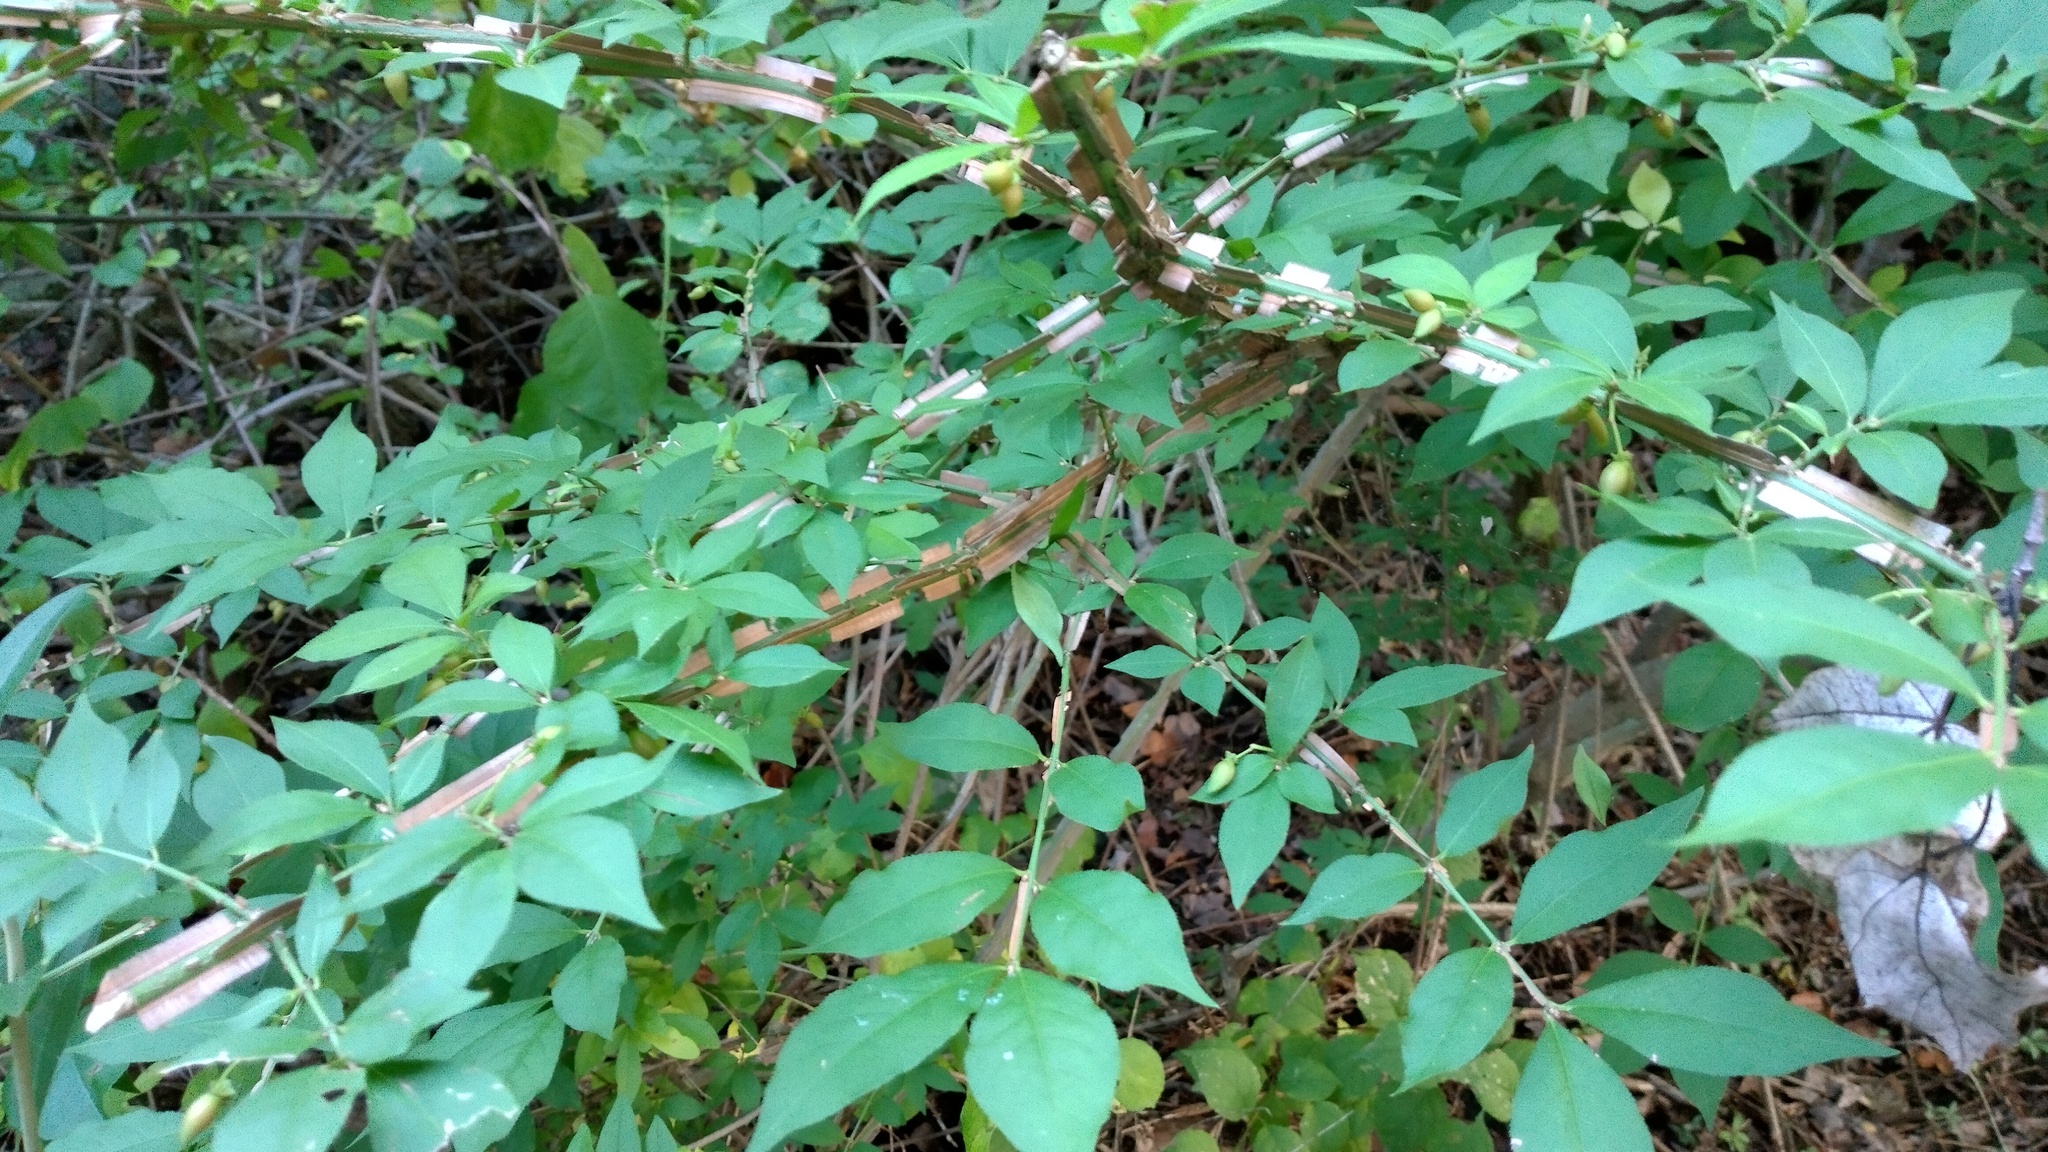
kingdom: Plantae
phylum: Tracheophyta
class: Magnoliopsida
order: Celastrales
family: Celastraceae
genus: Euonymus
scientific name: Euonymus alatus
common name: Winged euonymus
